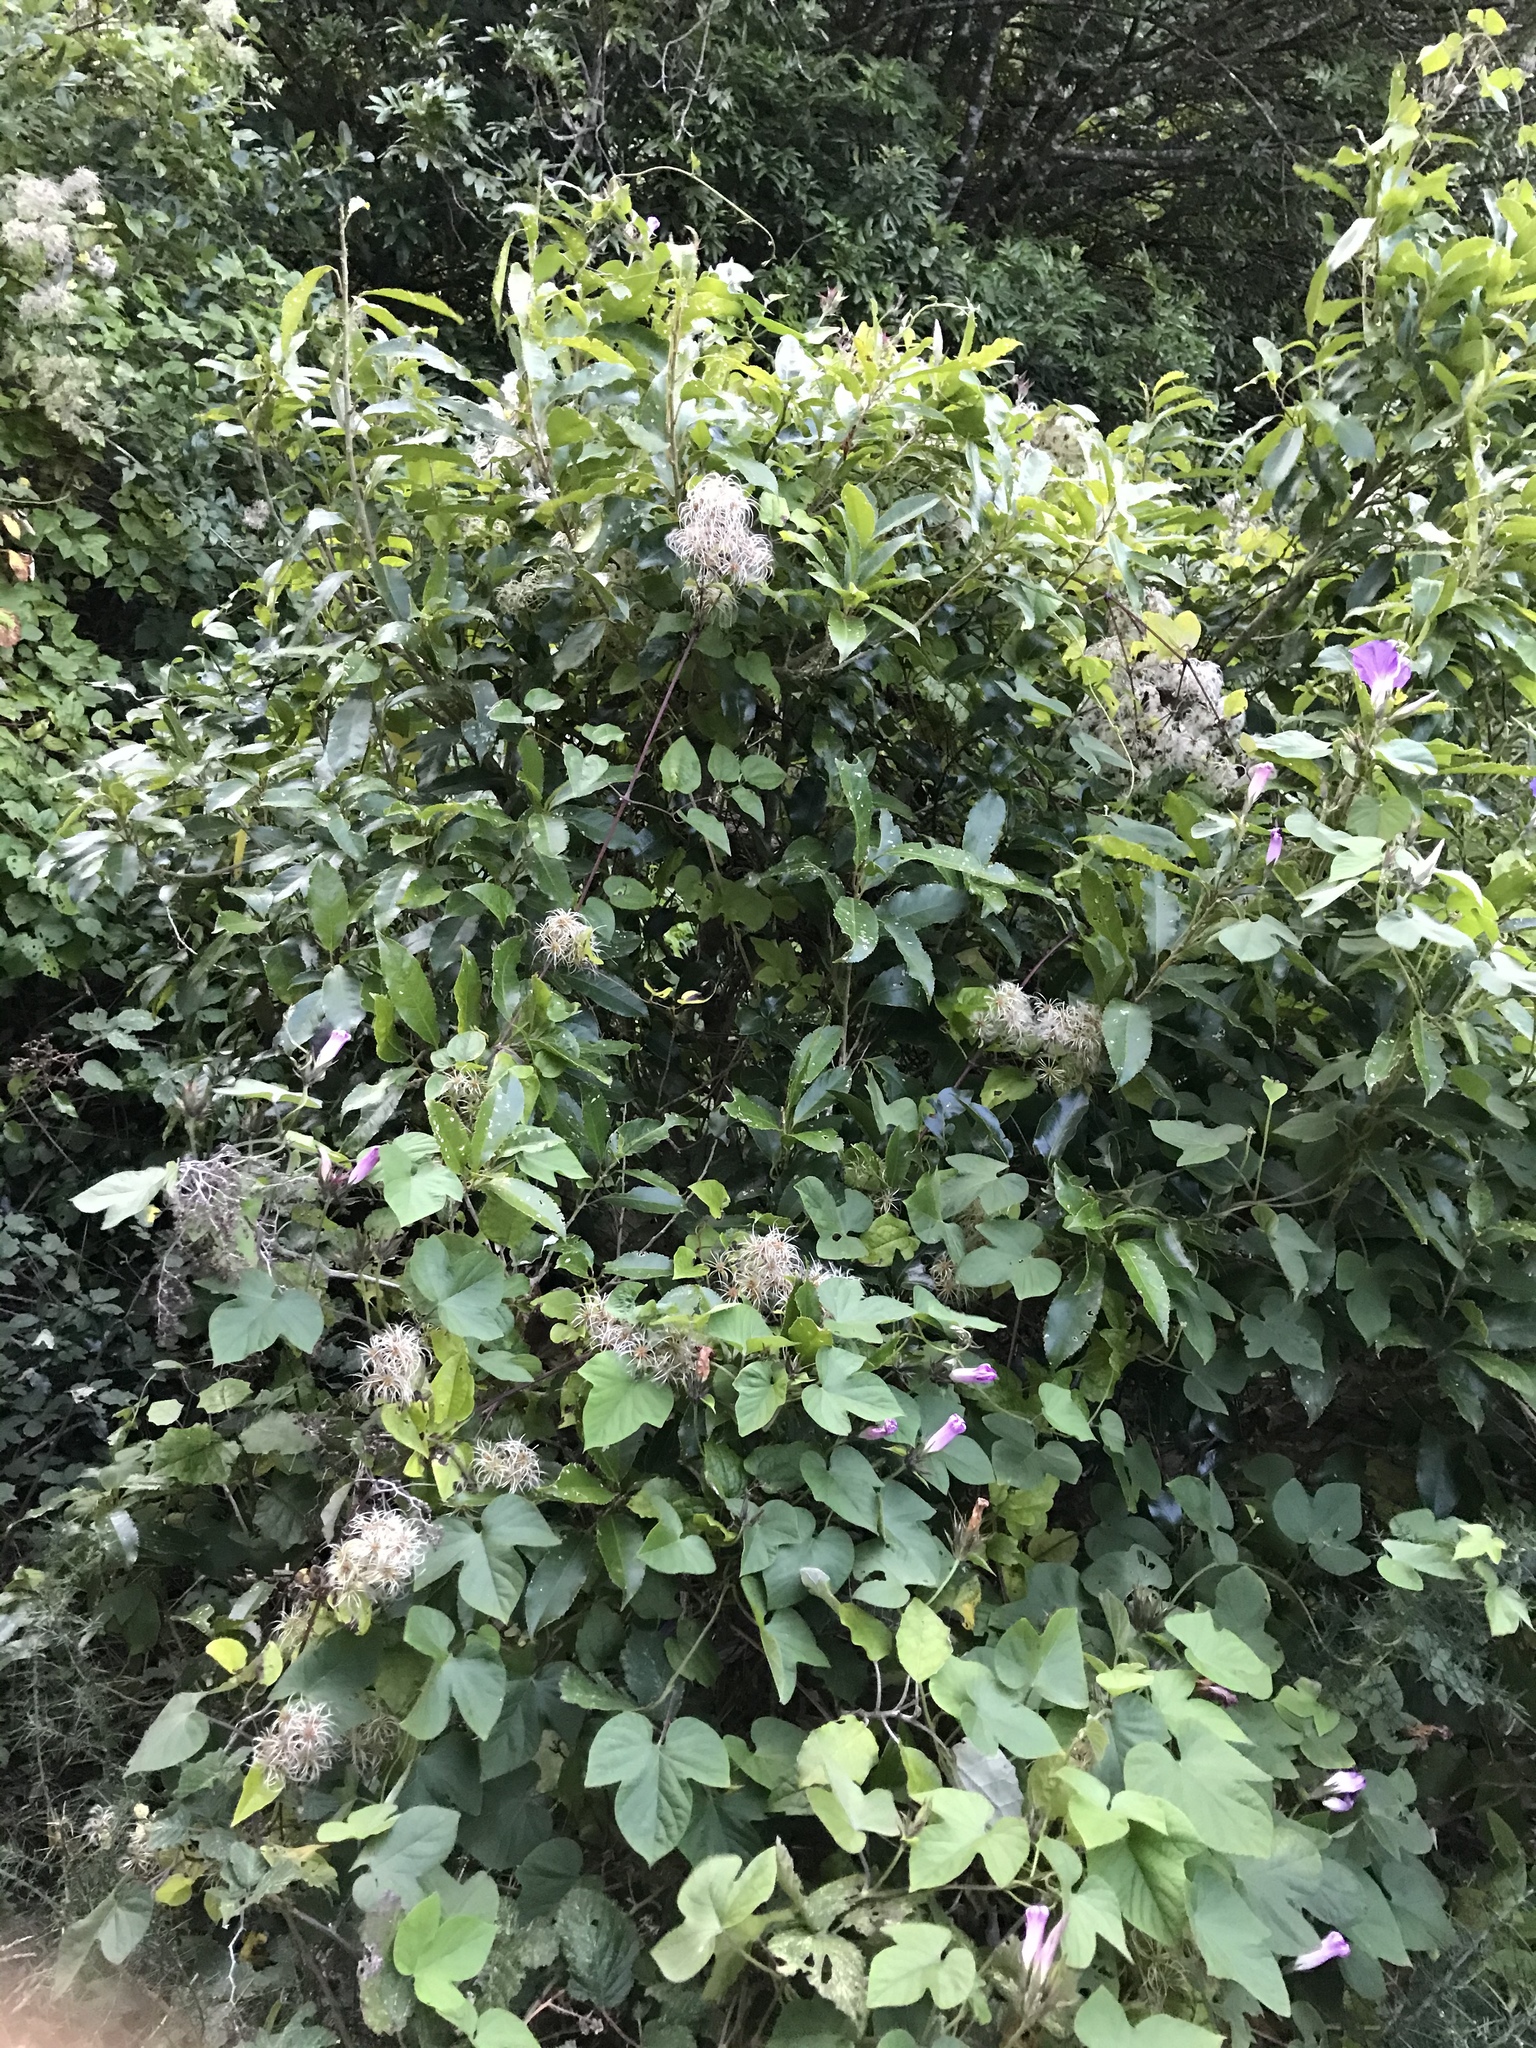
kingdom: Plantae
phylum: Tracheophyta
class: Magnoliopsida
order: Ranunculales
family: Ranunculaceae
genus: Clematis
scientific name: Clematis vitalba
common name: Evergreen clematis
